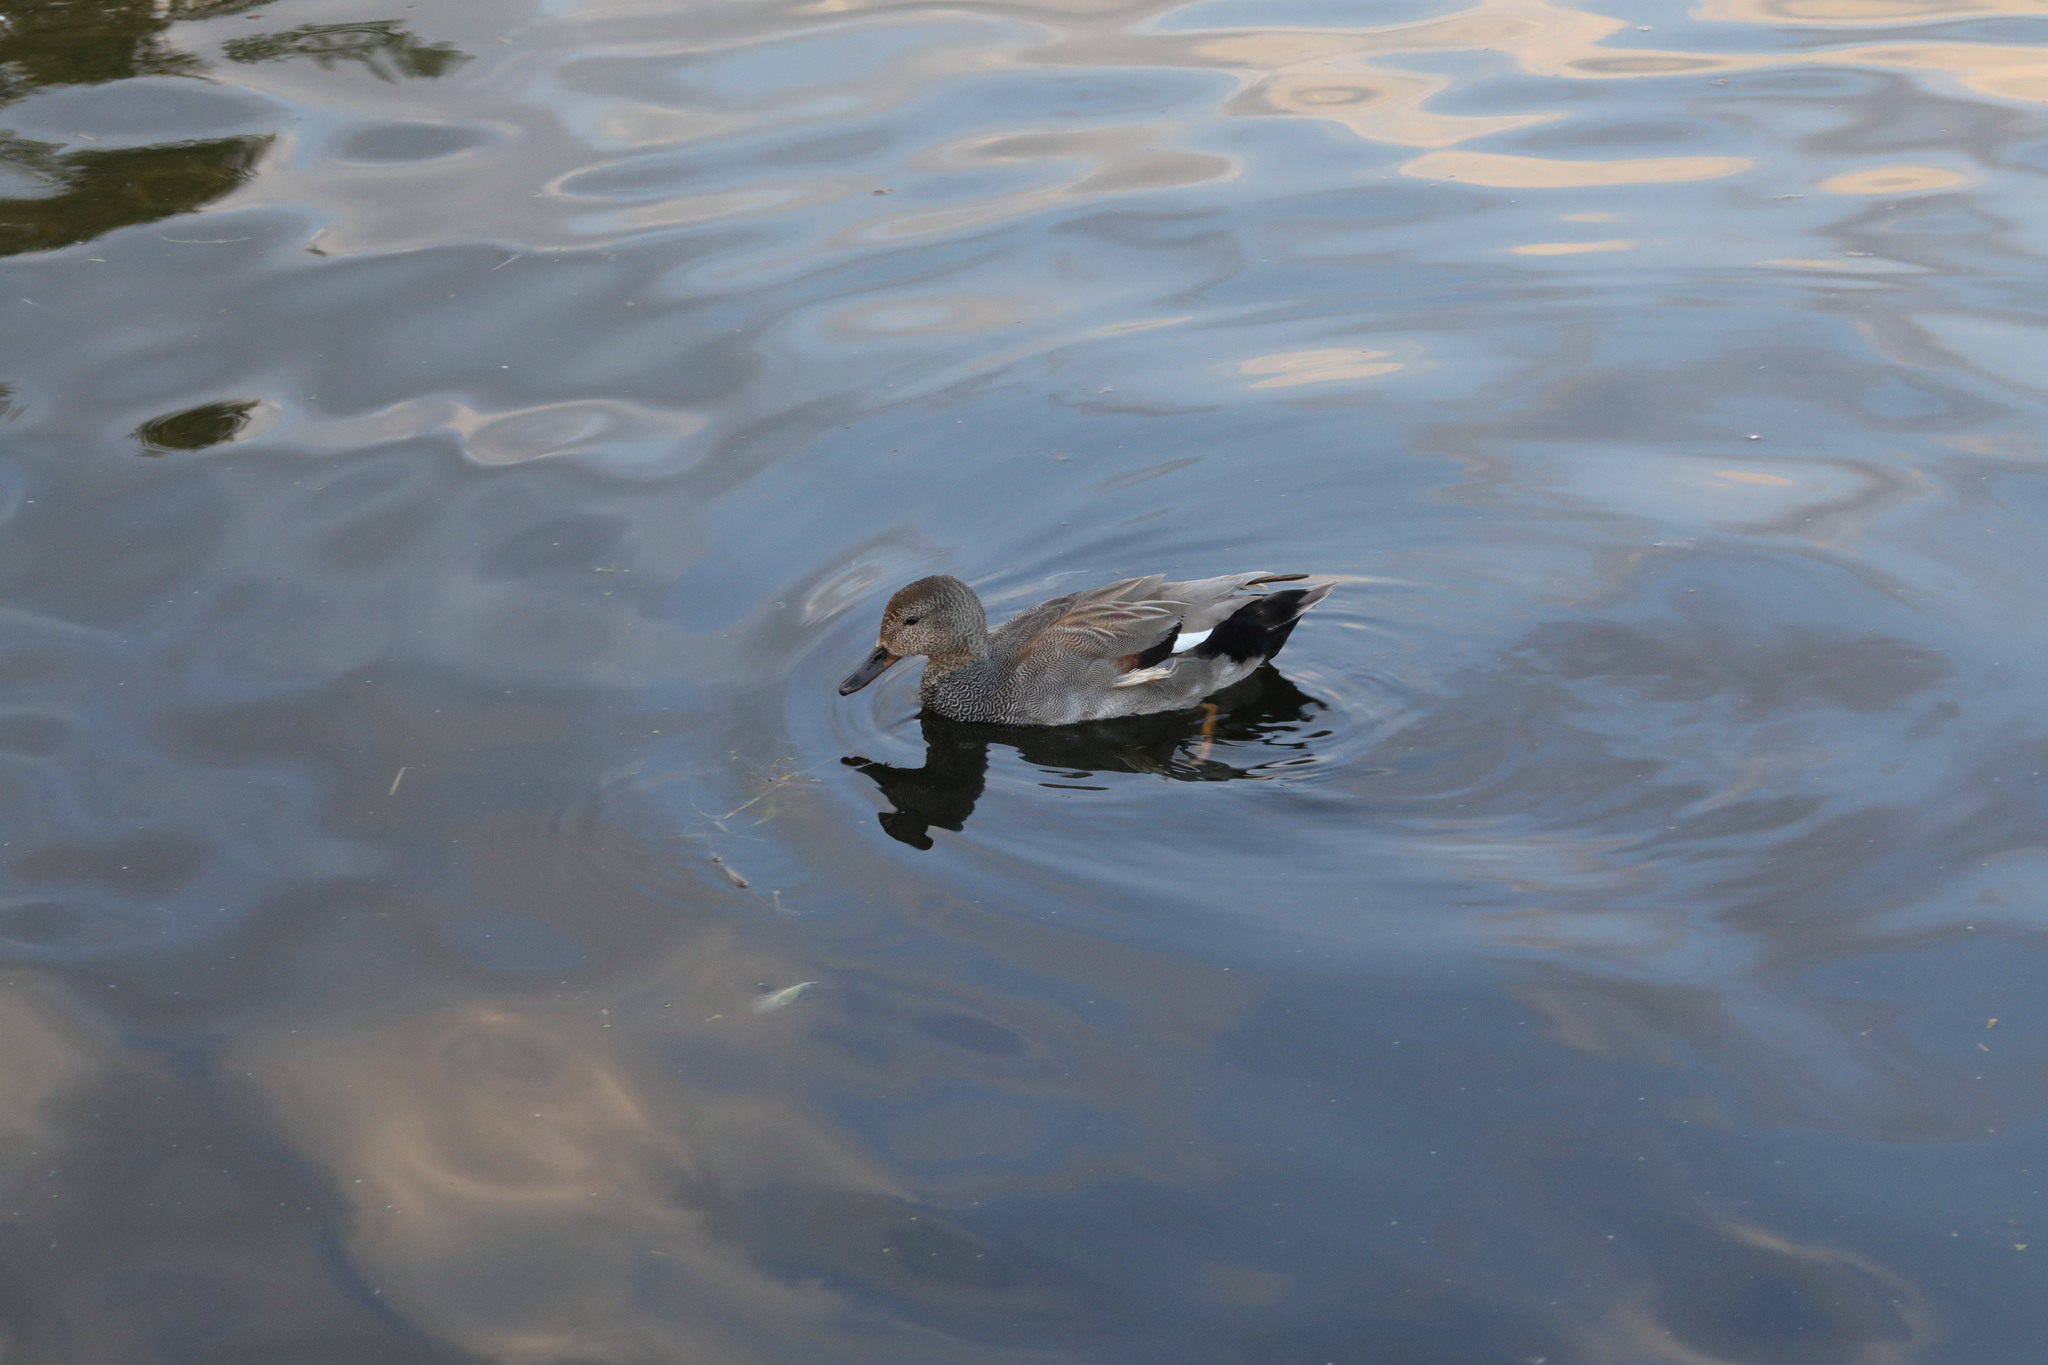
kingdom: Animalia
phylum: Chordata
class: Aves
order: Anseriformes
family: Anatidae
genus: Mareca
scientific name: Mareca strepera
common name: Gadwall
